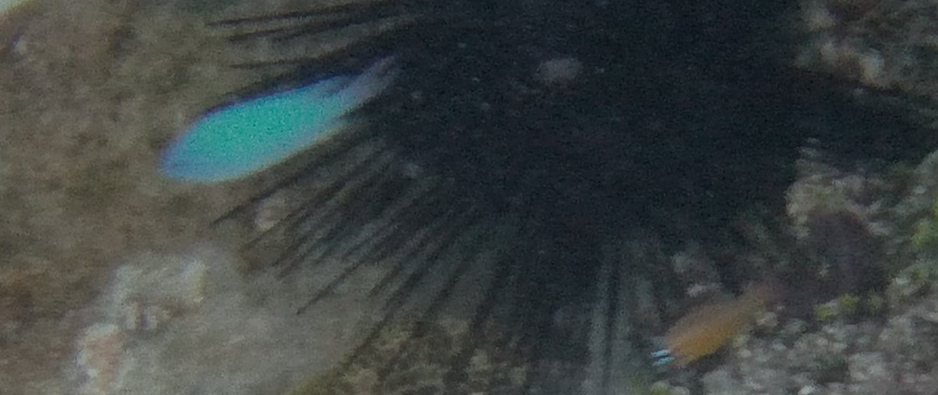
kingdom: Animalia
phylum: Chordata
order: Perciformes
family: Pomacentridae
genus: Pomacentrus
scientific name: Pomacentrus pavo
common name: Sapphire damsel
